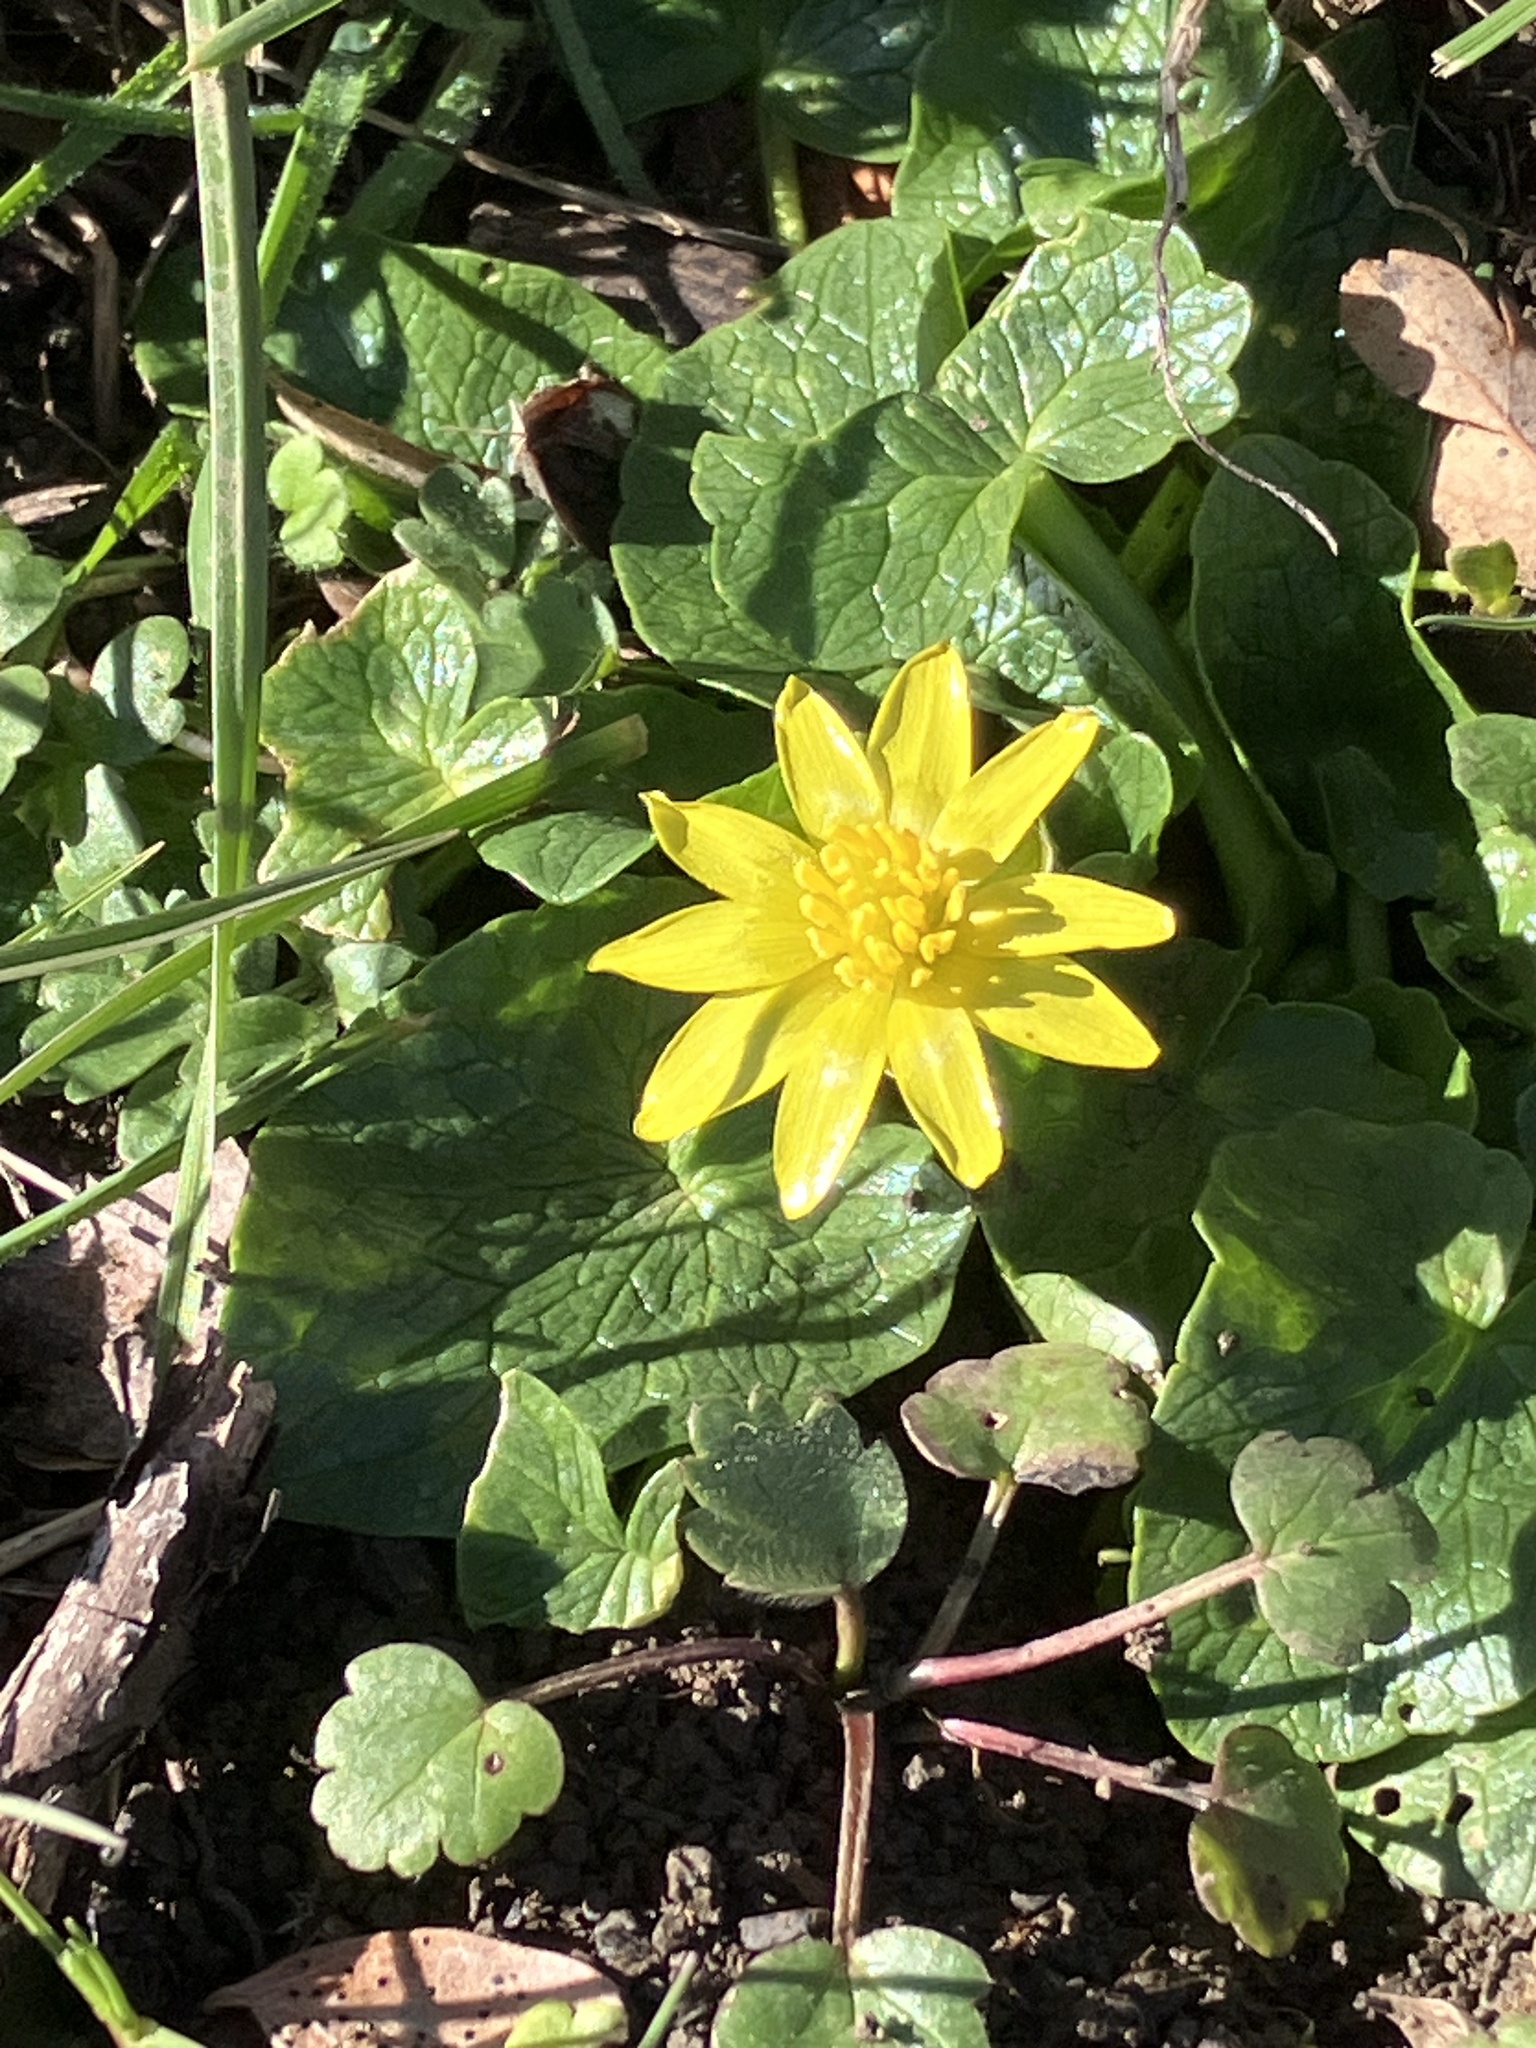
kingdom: Plantae
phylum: Tracheophyta
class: Magnoliopsida
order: Ranunculales
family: Ranunculaceae
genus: Ficaria
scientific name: Ficaria verna
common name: Lesser celandine
